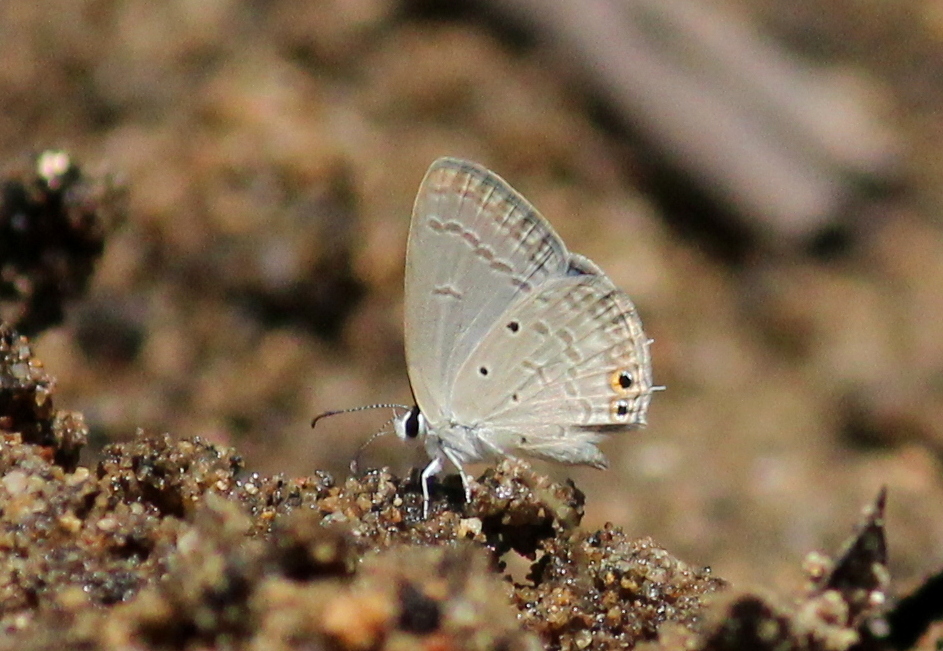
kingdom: Animalia
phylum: Arthropoda
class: Insecta
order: Lepidoptera
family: Lycaenidae
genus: Euchrysops
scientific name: Euchrysops cnejus
